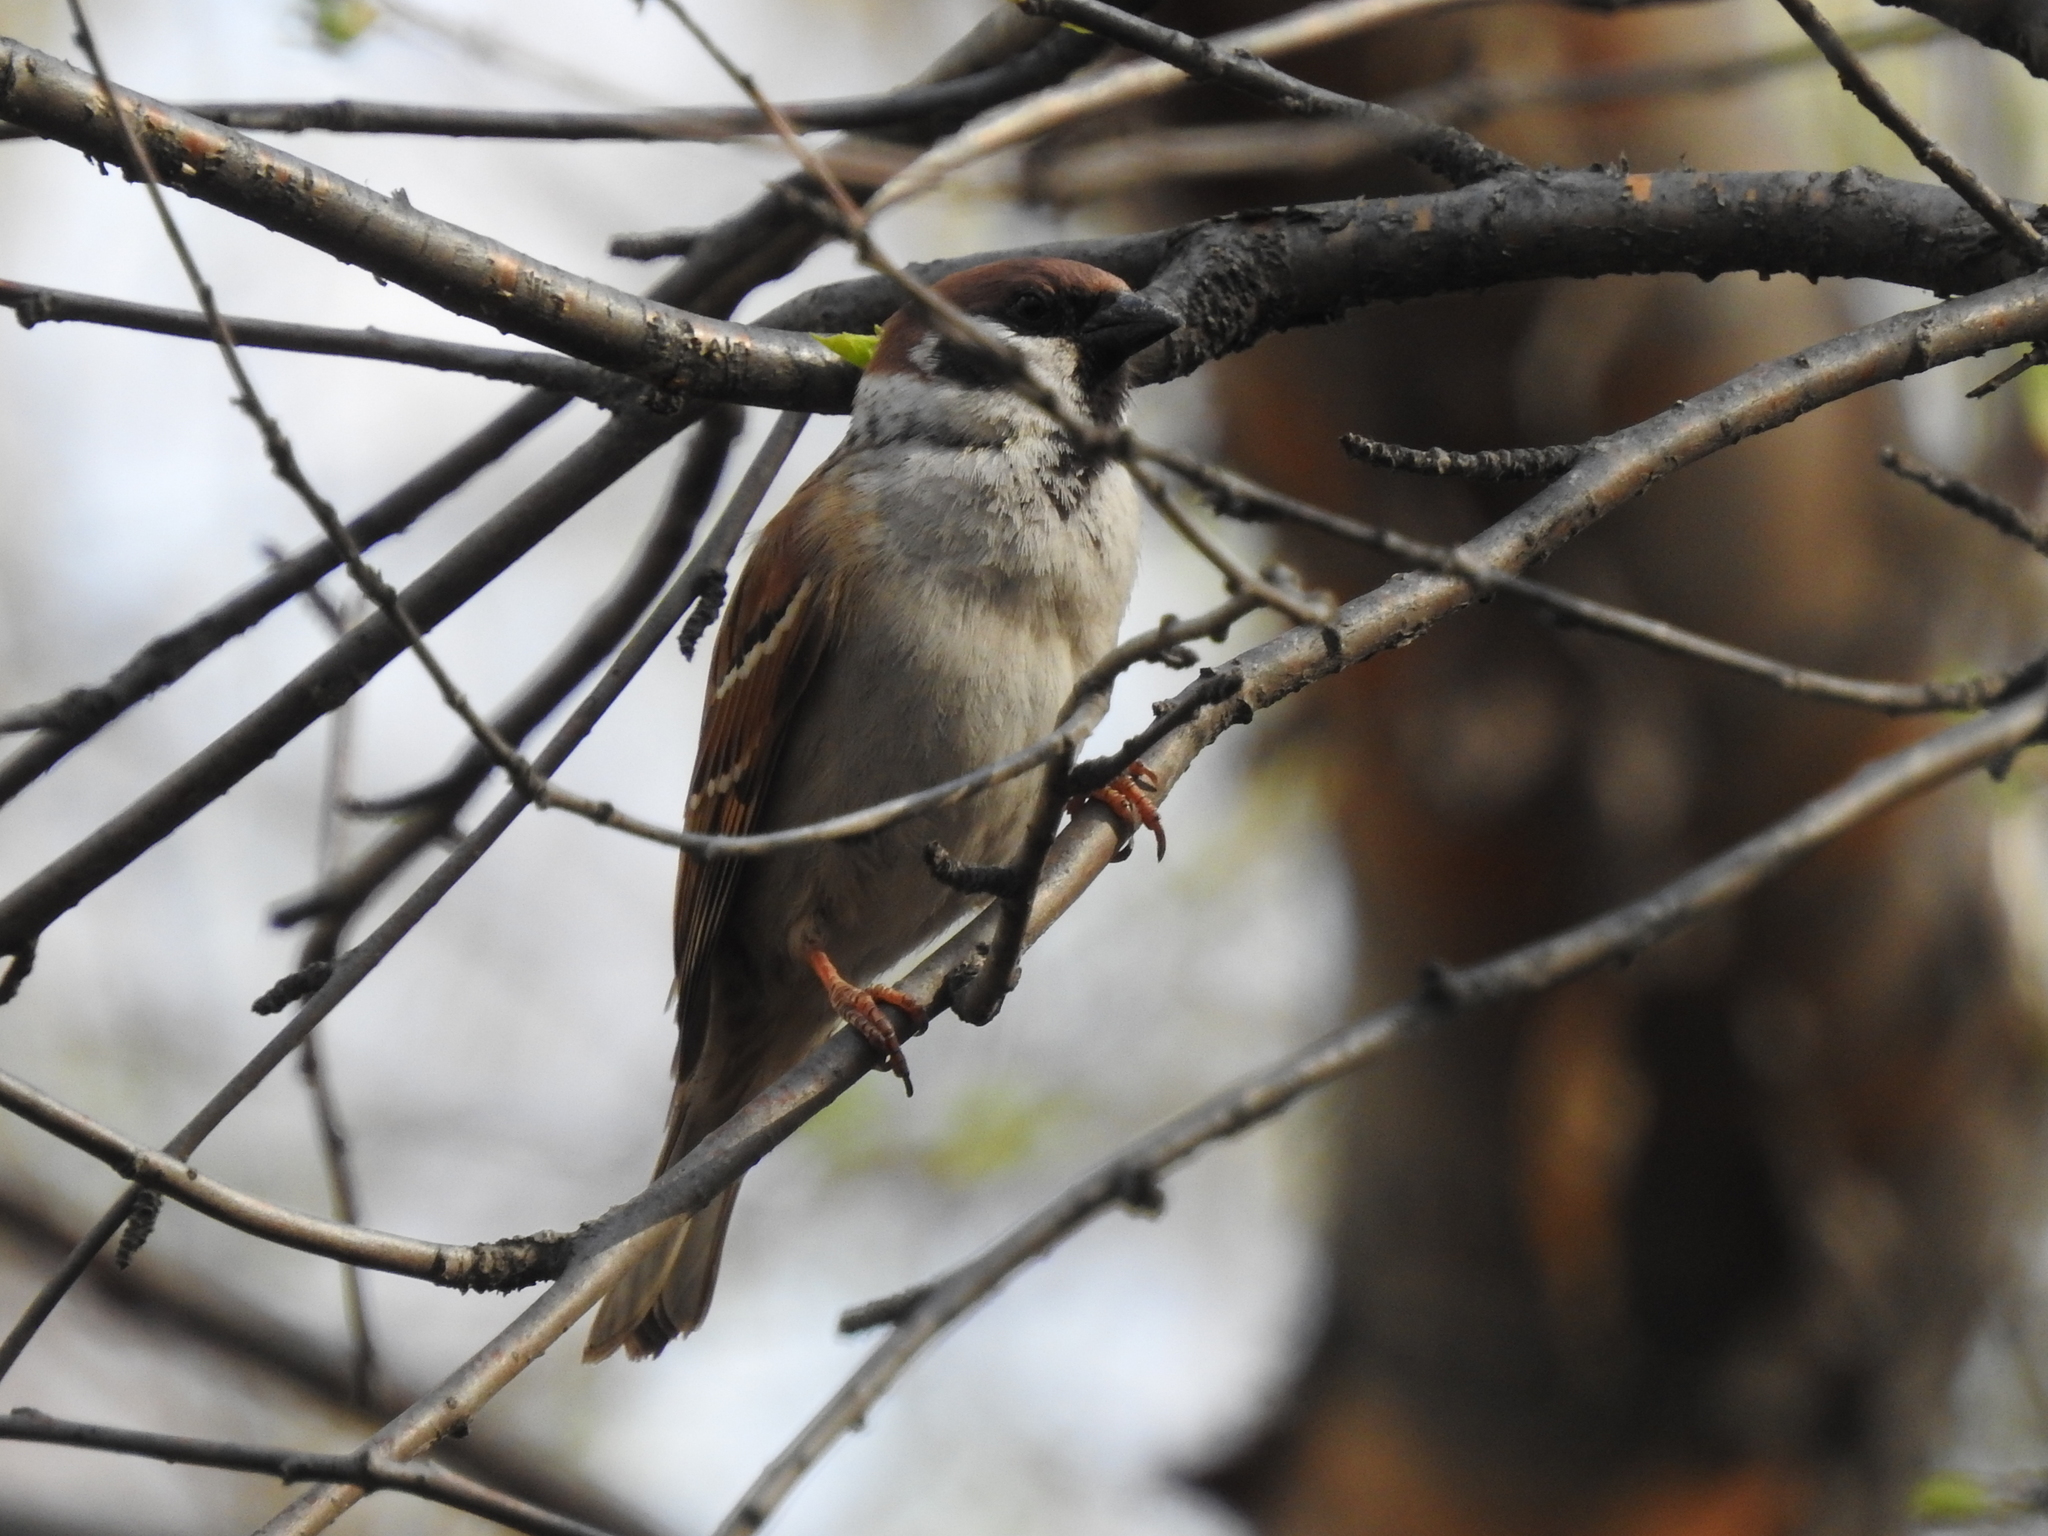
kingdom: Animalia
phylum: Chordata
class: Aves
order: Passeriformes
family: Passeridae
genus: Passer
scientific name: Passer montanus
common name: Eurasian tree sparrow
